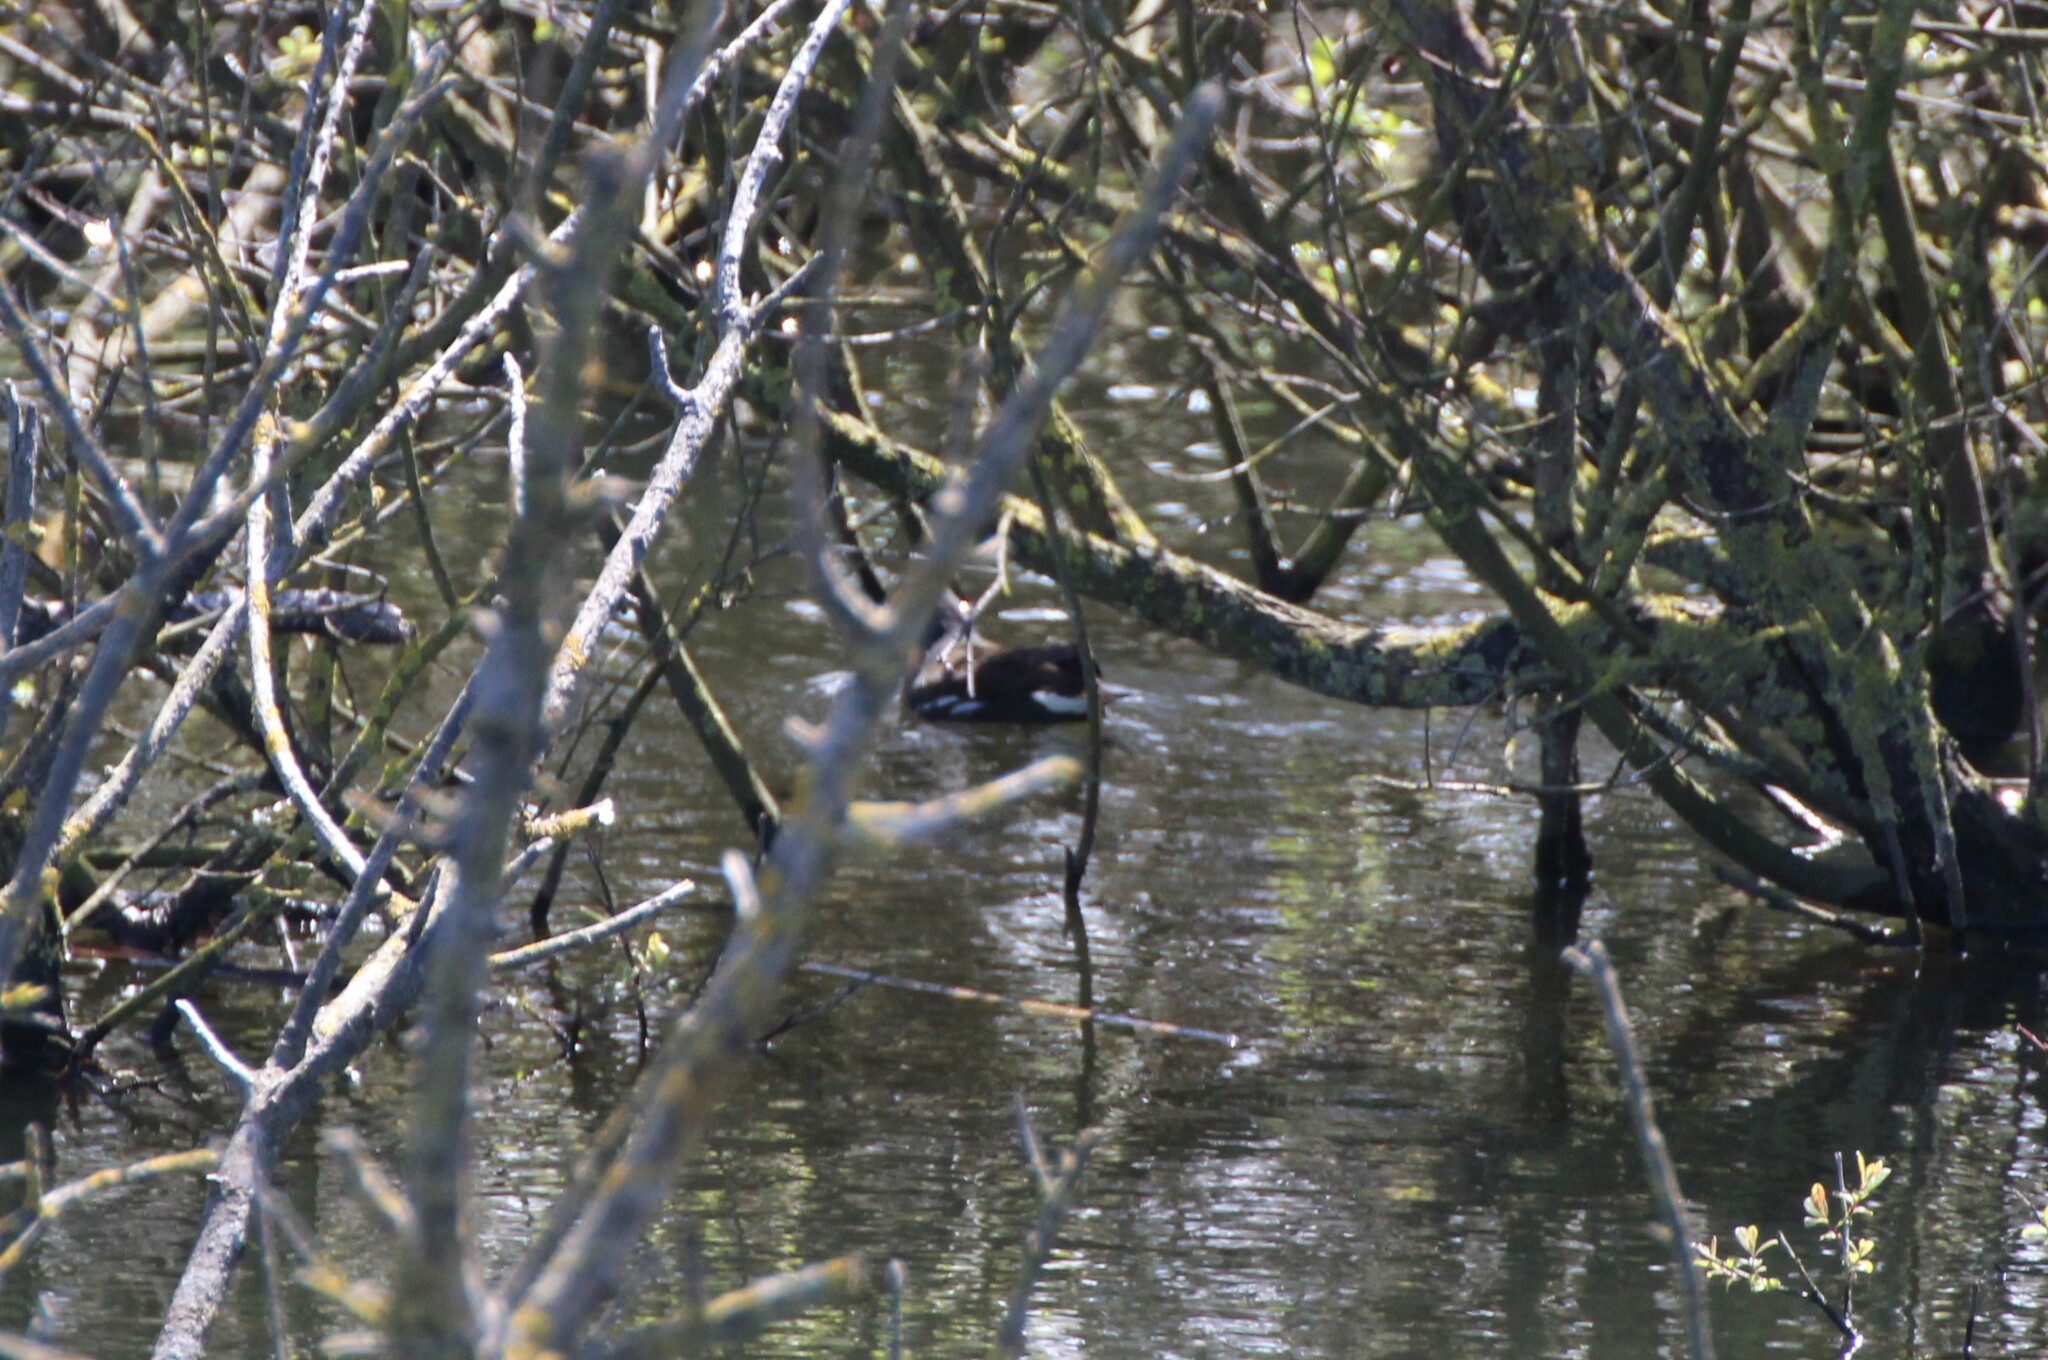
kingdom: Animalia
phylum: Chordata
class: Aves
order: Gruiformes
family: Rallidae
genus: Gallinula
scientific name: Gallinula chloropus
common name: Common moorhen
